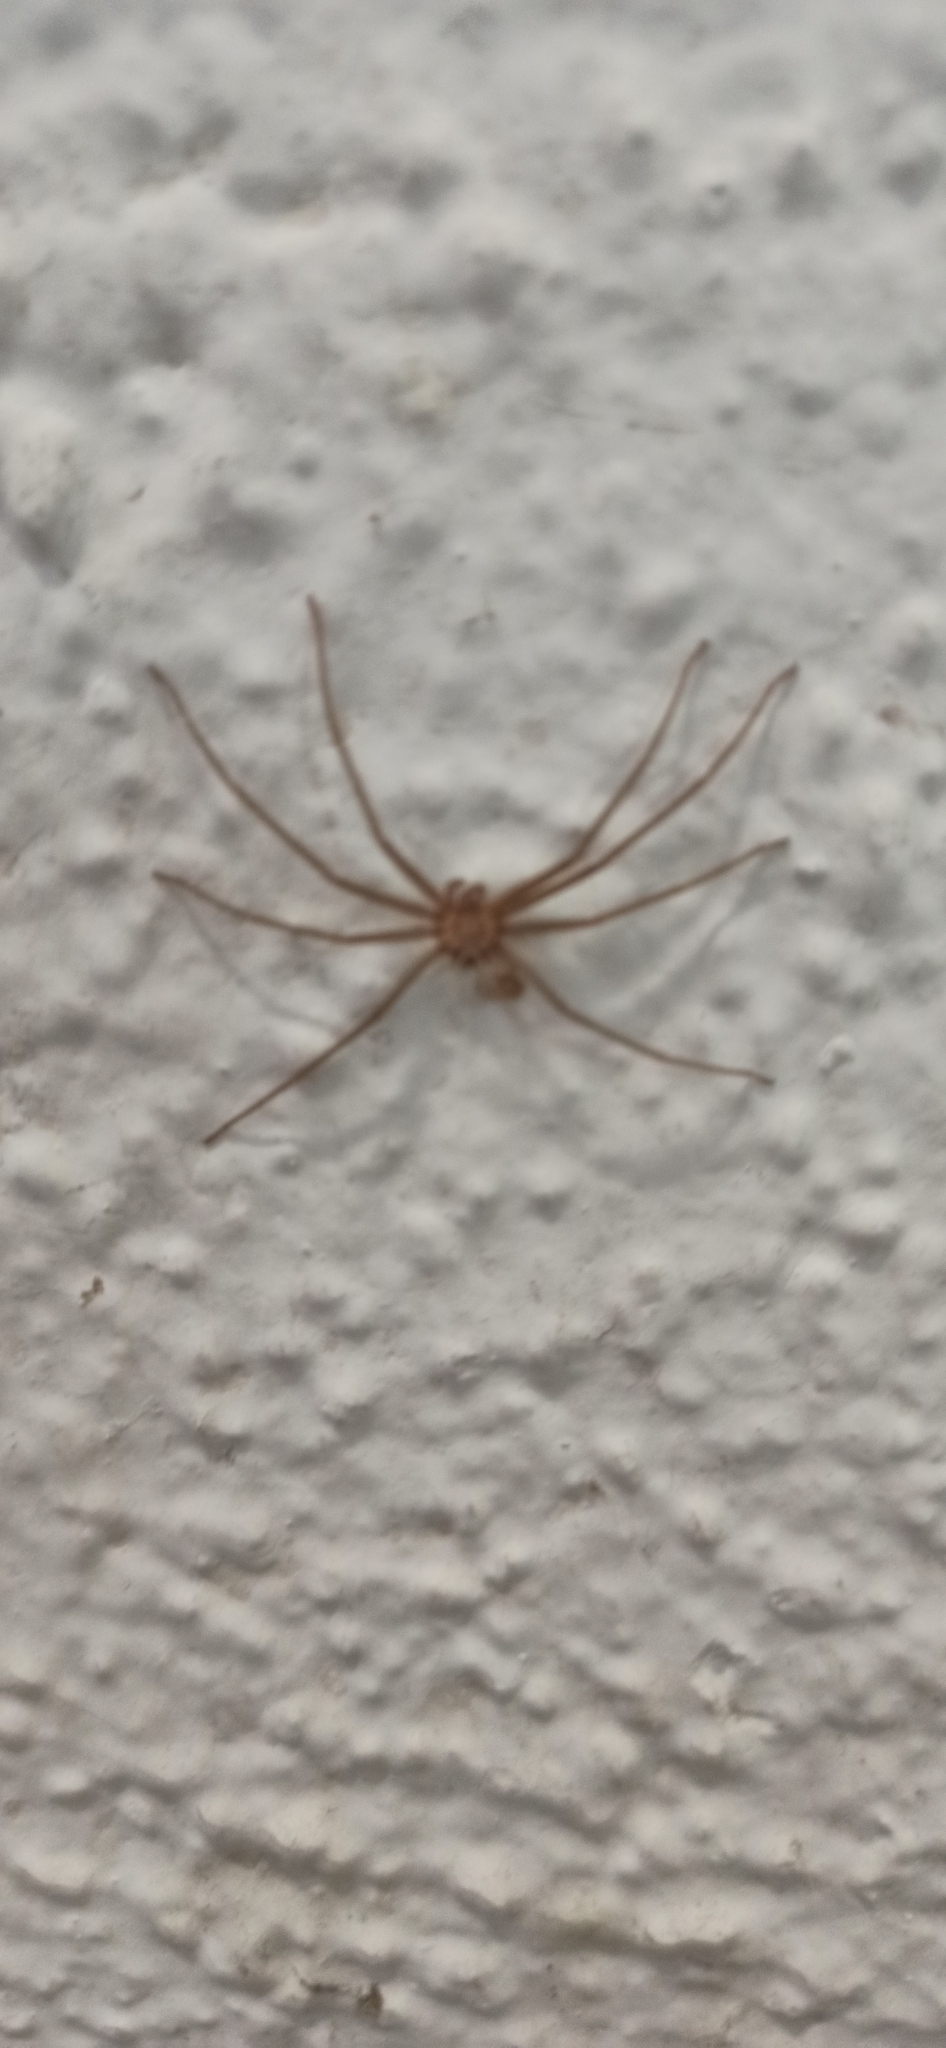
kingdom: Animalia
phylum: Arthropoda
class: Arachnida
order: Araneae
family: Sicariidae
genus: Loxosceles
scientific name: Loxosceles rufescens
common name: Mediterranean recluse spider
